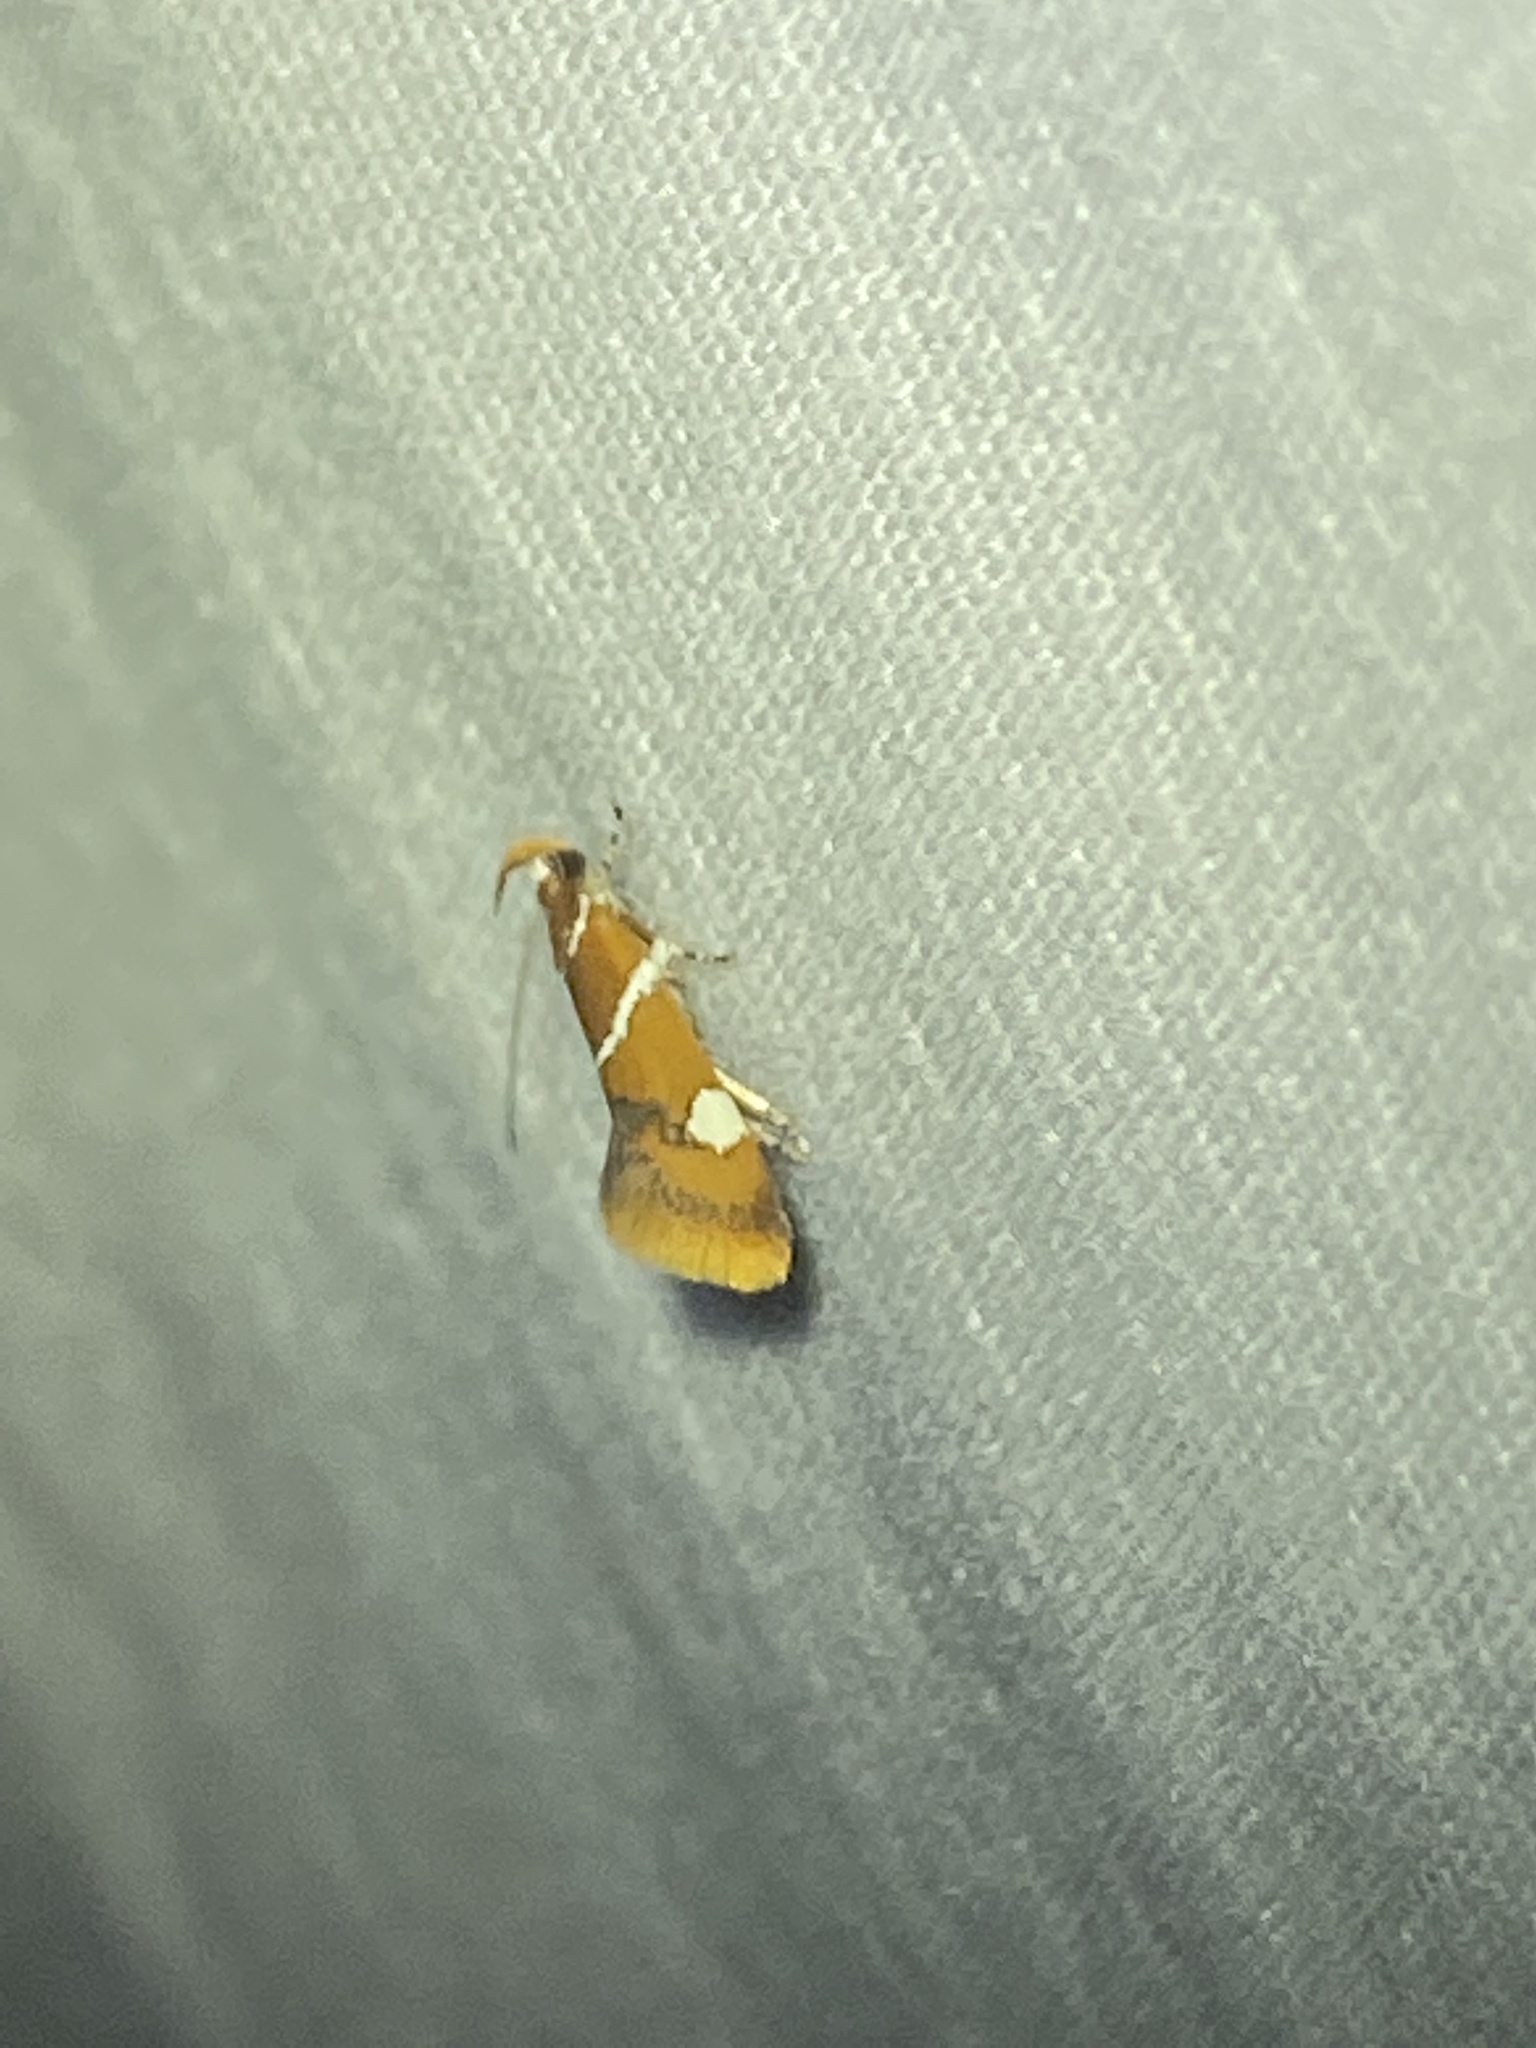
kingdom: Animalia
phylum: Arthropoda
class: Insecta
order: Lepidoptera
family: Oecophoridae
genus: Promalactis
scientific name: Promalactis suzukiella
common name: Moth
